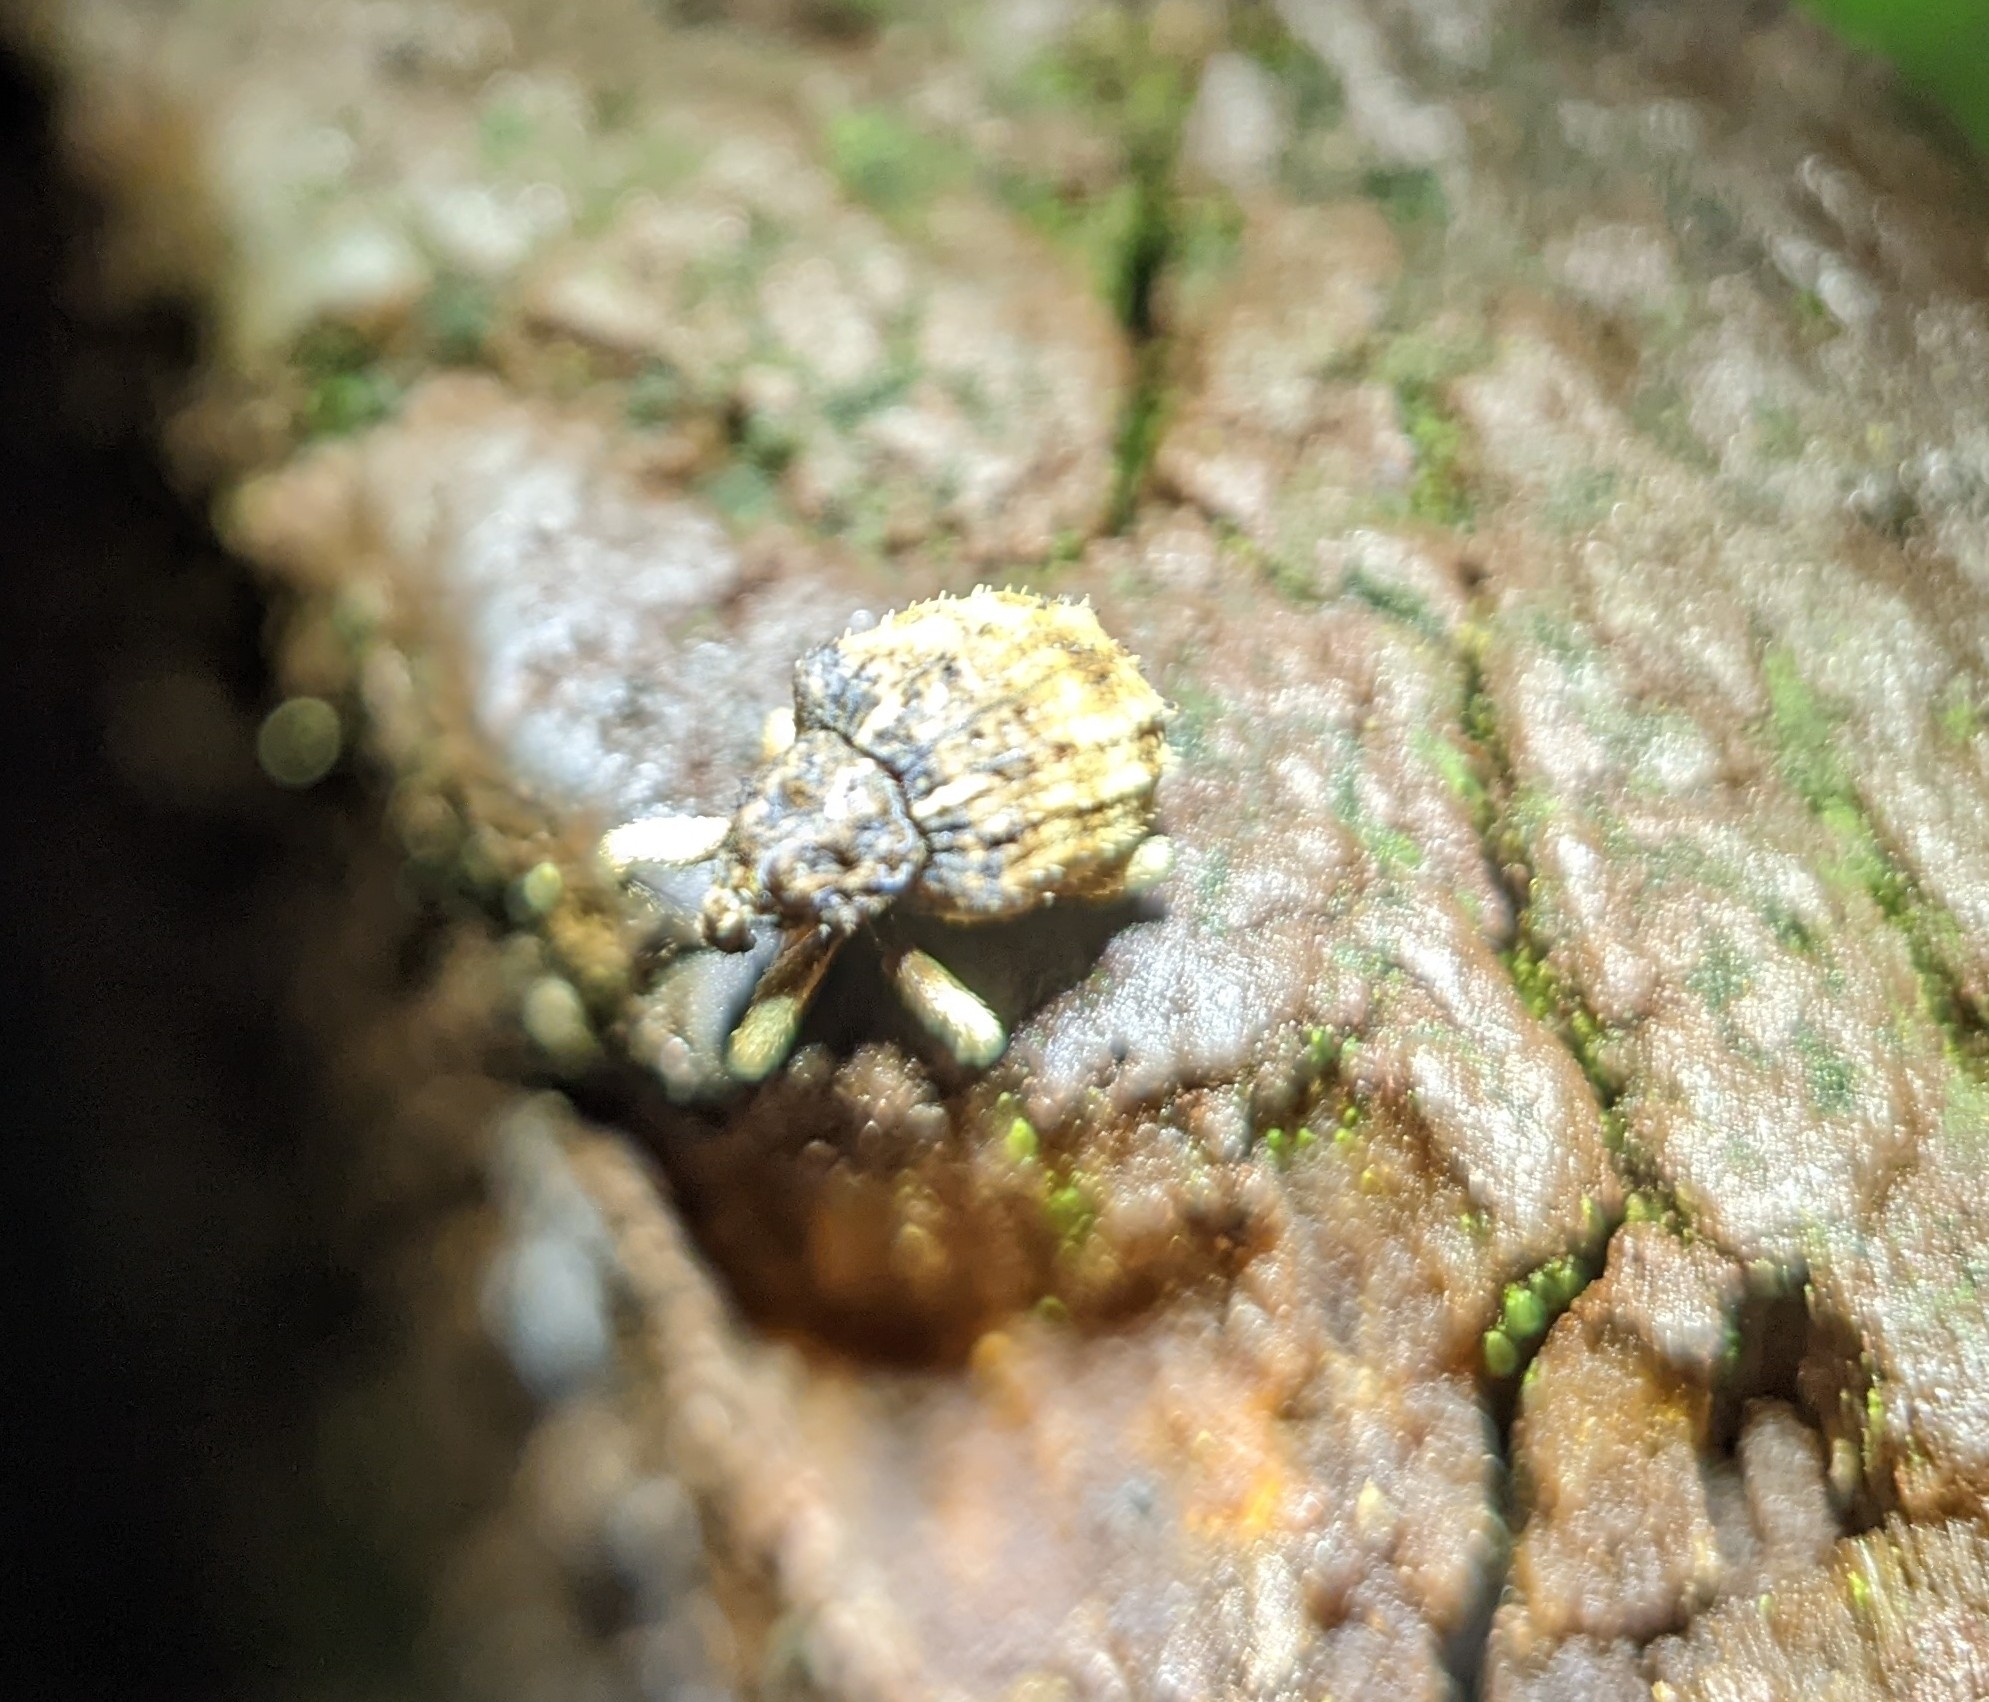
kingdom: Animalia
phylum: Arthropoda
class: Insecta
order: Coleoptera
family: Curculionidae
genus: Phyrdenus
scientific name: Phyrdenus divergens
